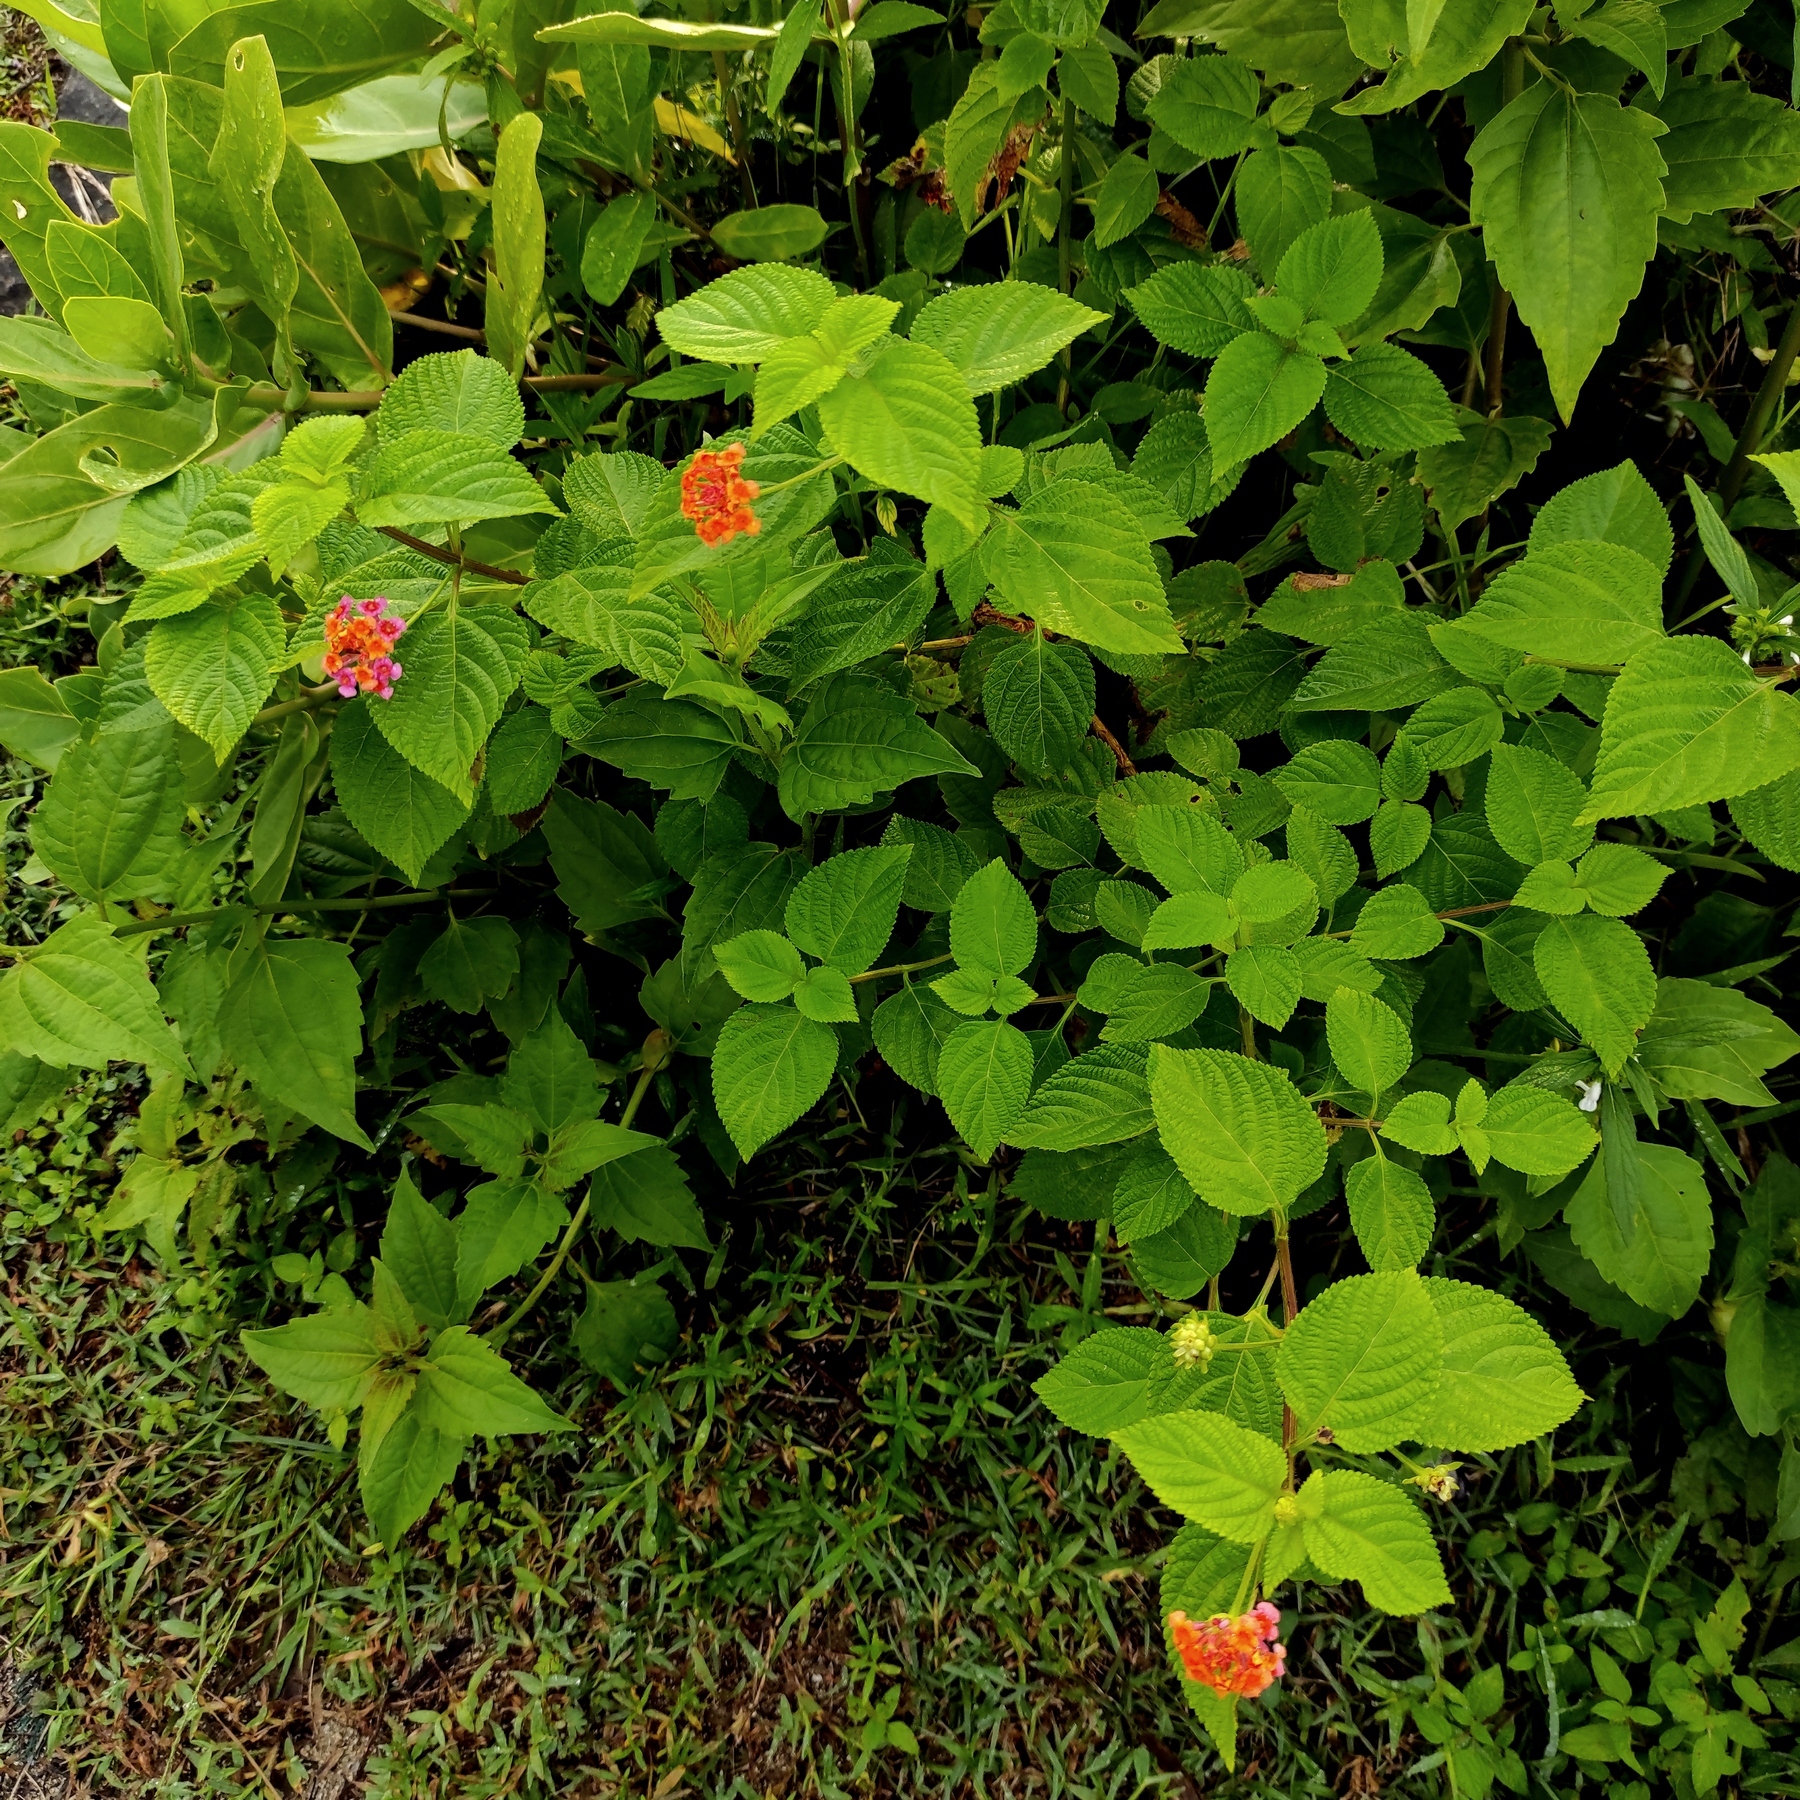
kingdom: Plantae
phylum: Tracheophyta
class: Magnoliopsida
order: Lamiales
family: Verbenaceae
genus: Lantana
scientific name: Lantana camara
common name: Lantana
